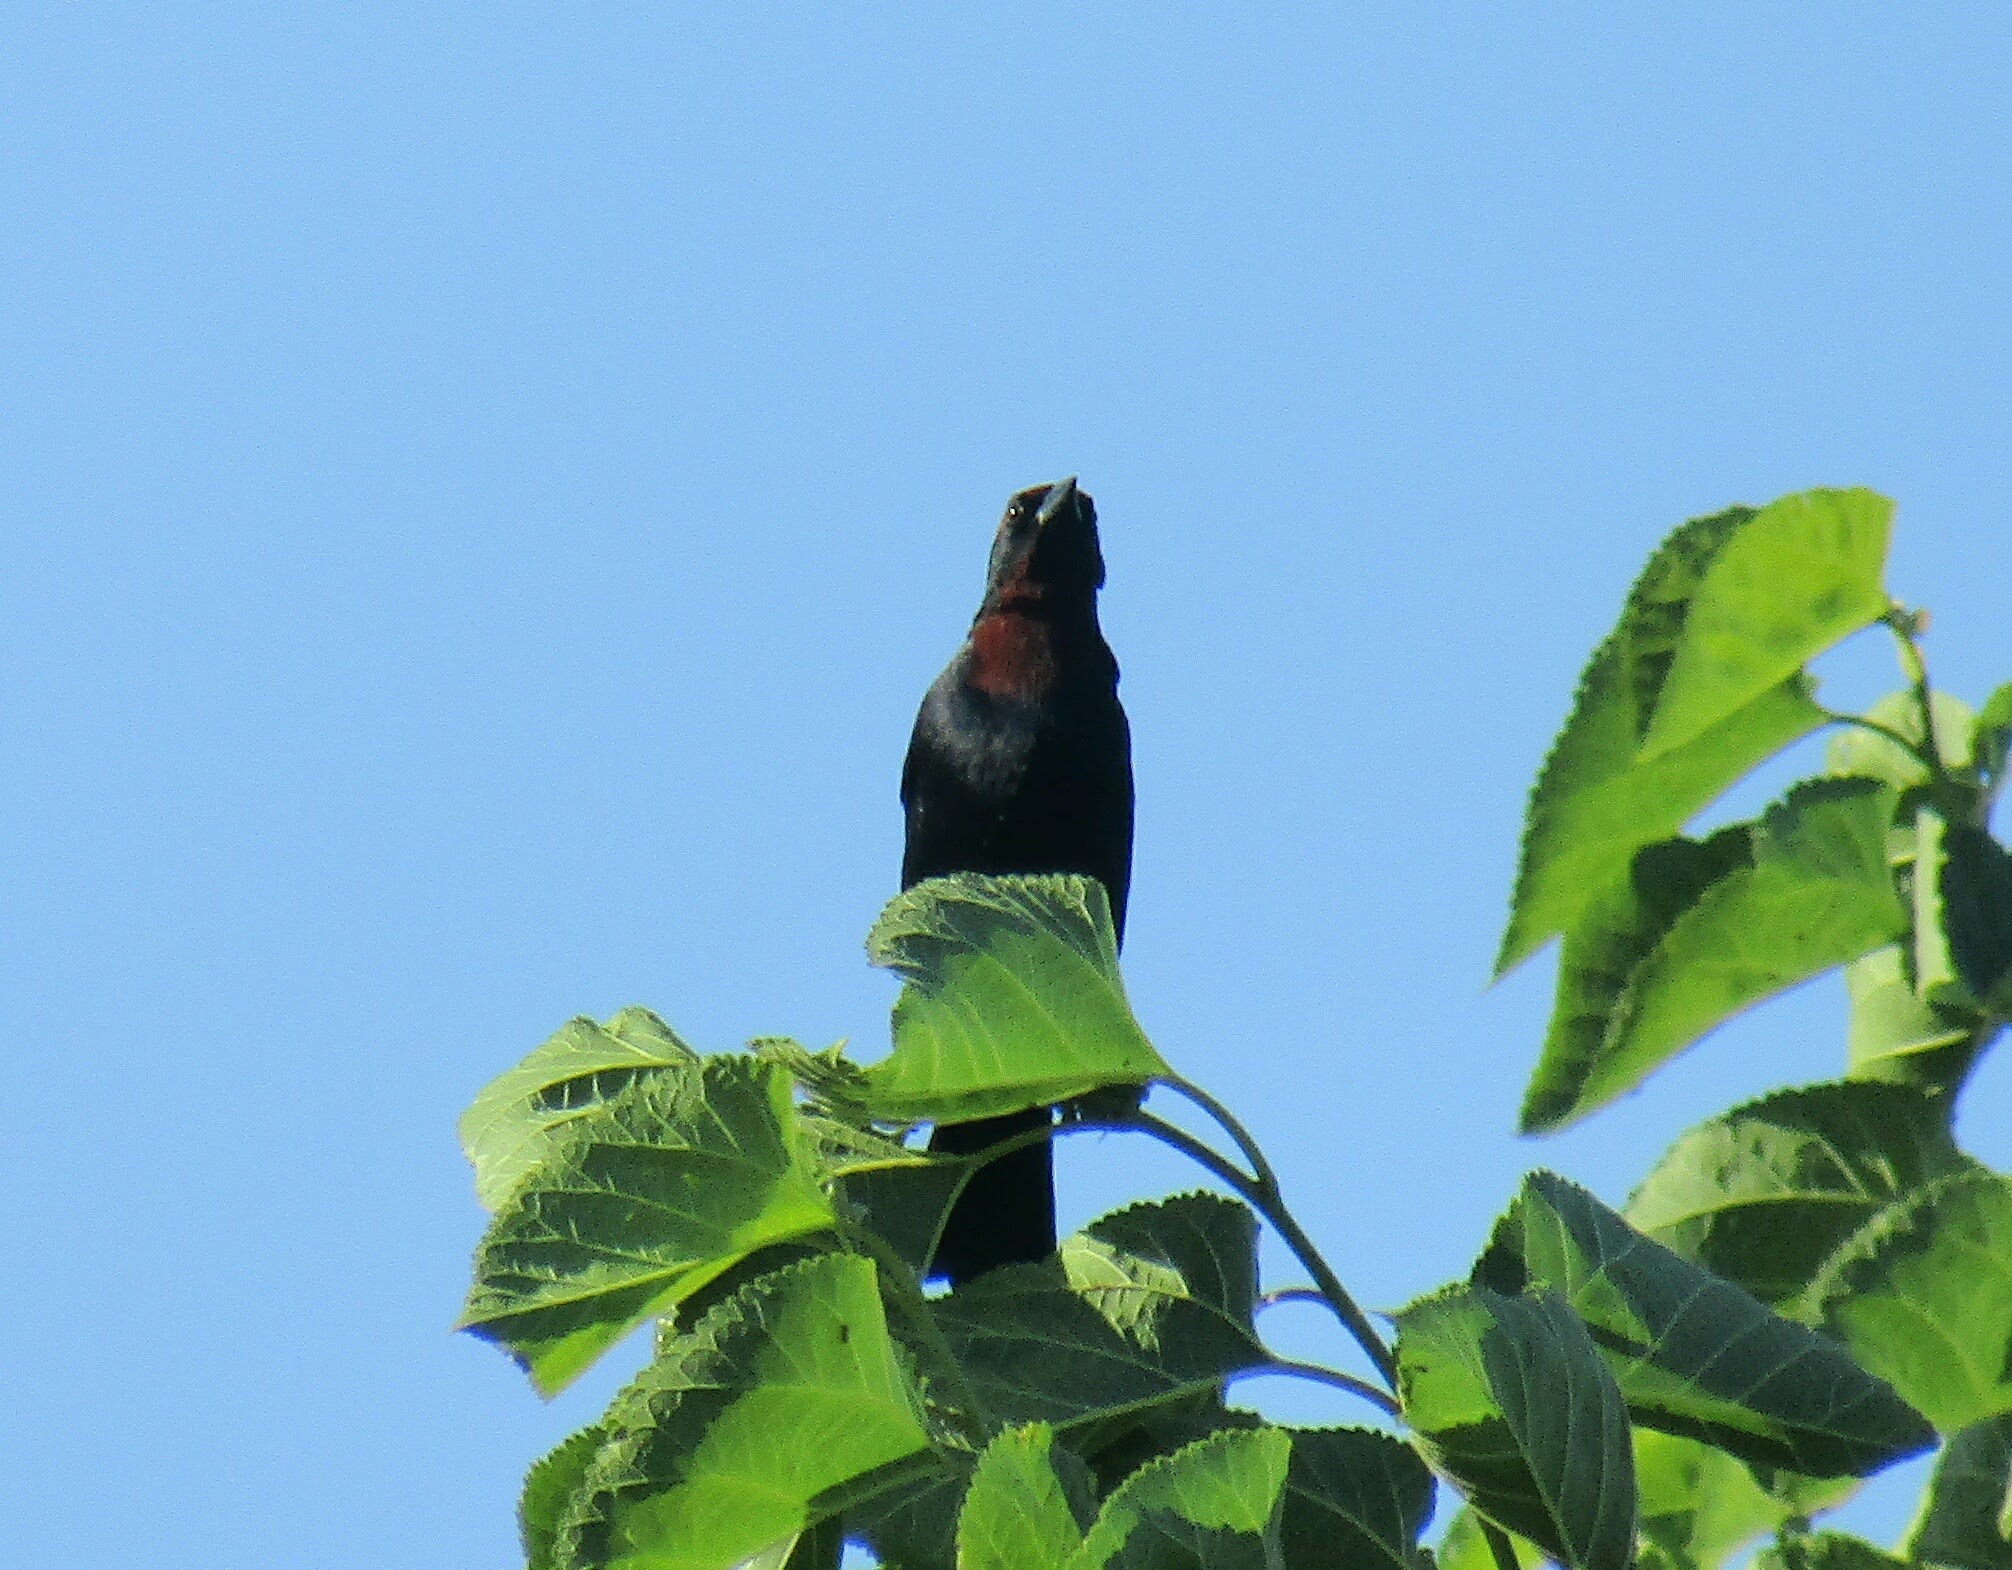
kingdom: Animalia
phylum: Chordata
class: Aves
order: Passeriformes
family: Icteridae
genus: Chrysomus
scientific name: Chrysomus ruficapillus
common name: Chestnut-capped blackbird
